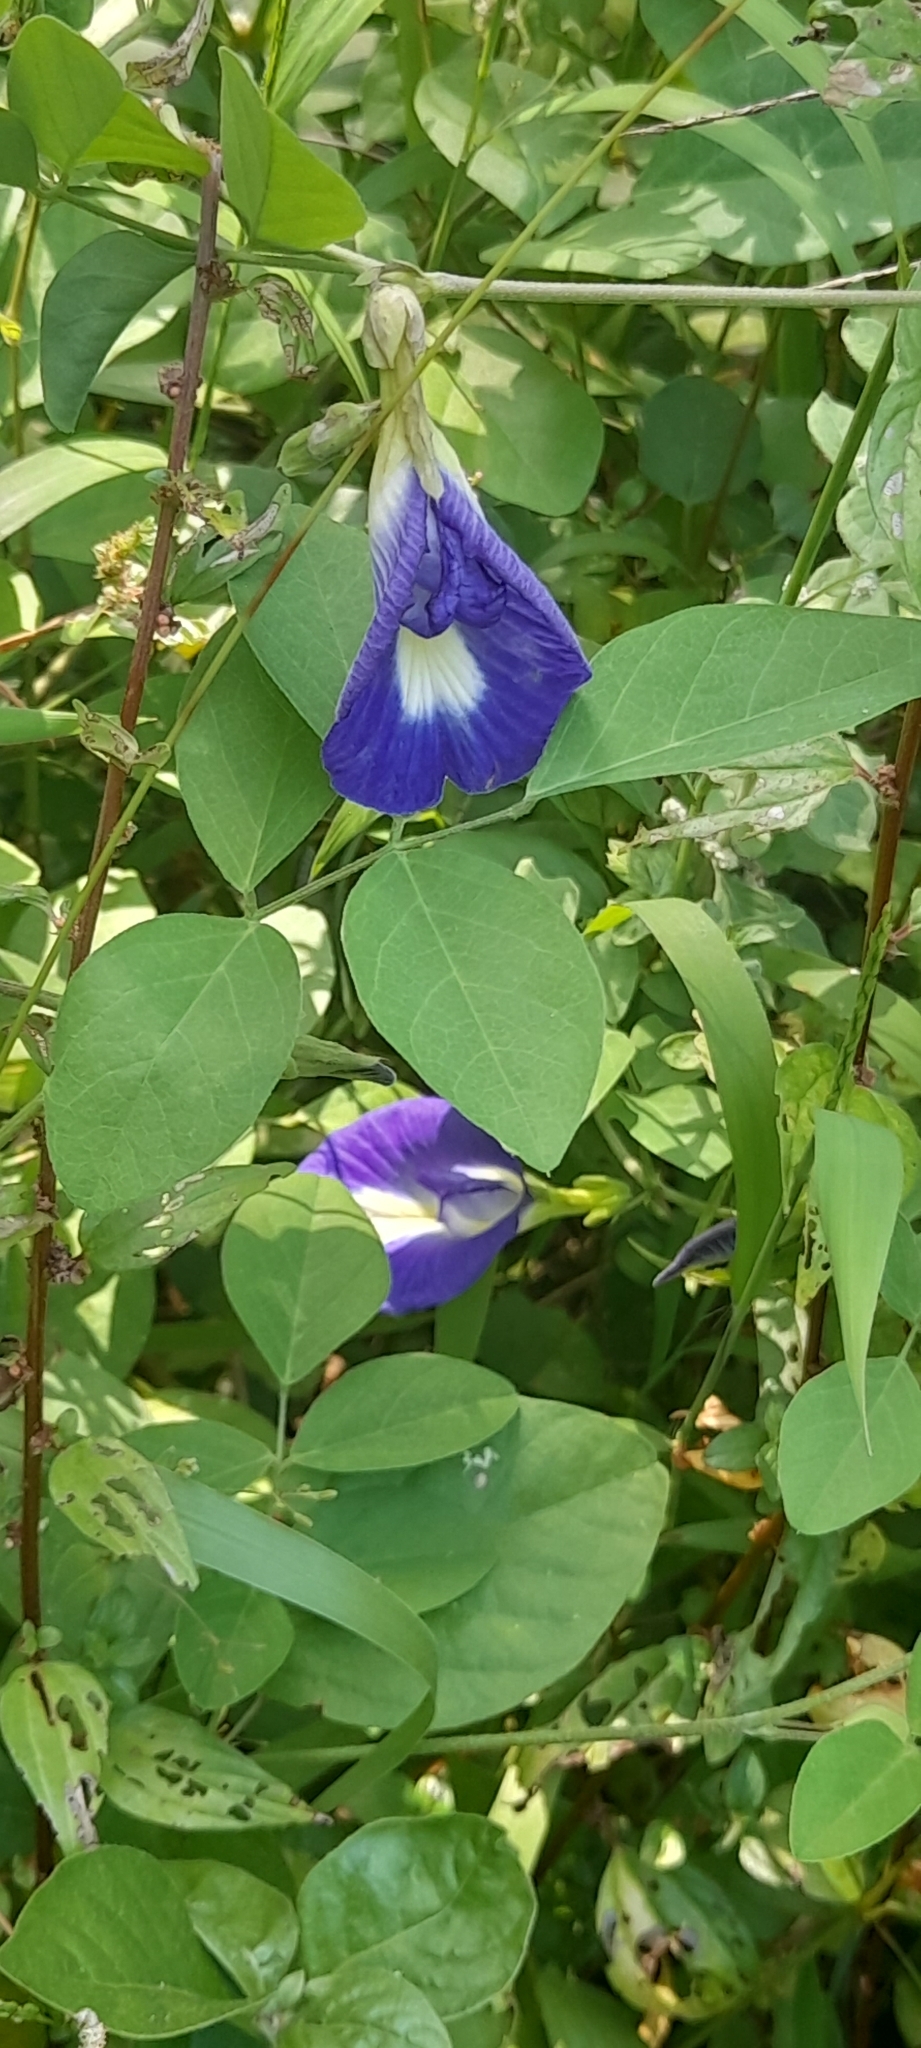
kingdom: Plantae
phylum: Tracheophyta
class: Magnoliopsida
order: Fabales
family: Fabaceae
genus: Clitoria
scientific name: Clitoria ternatea
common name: Asian pigeonwings
